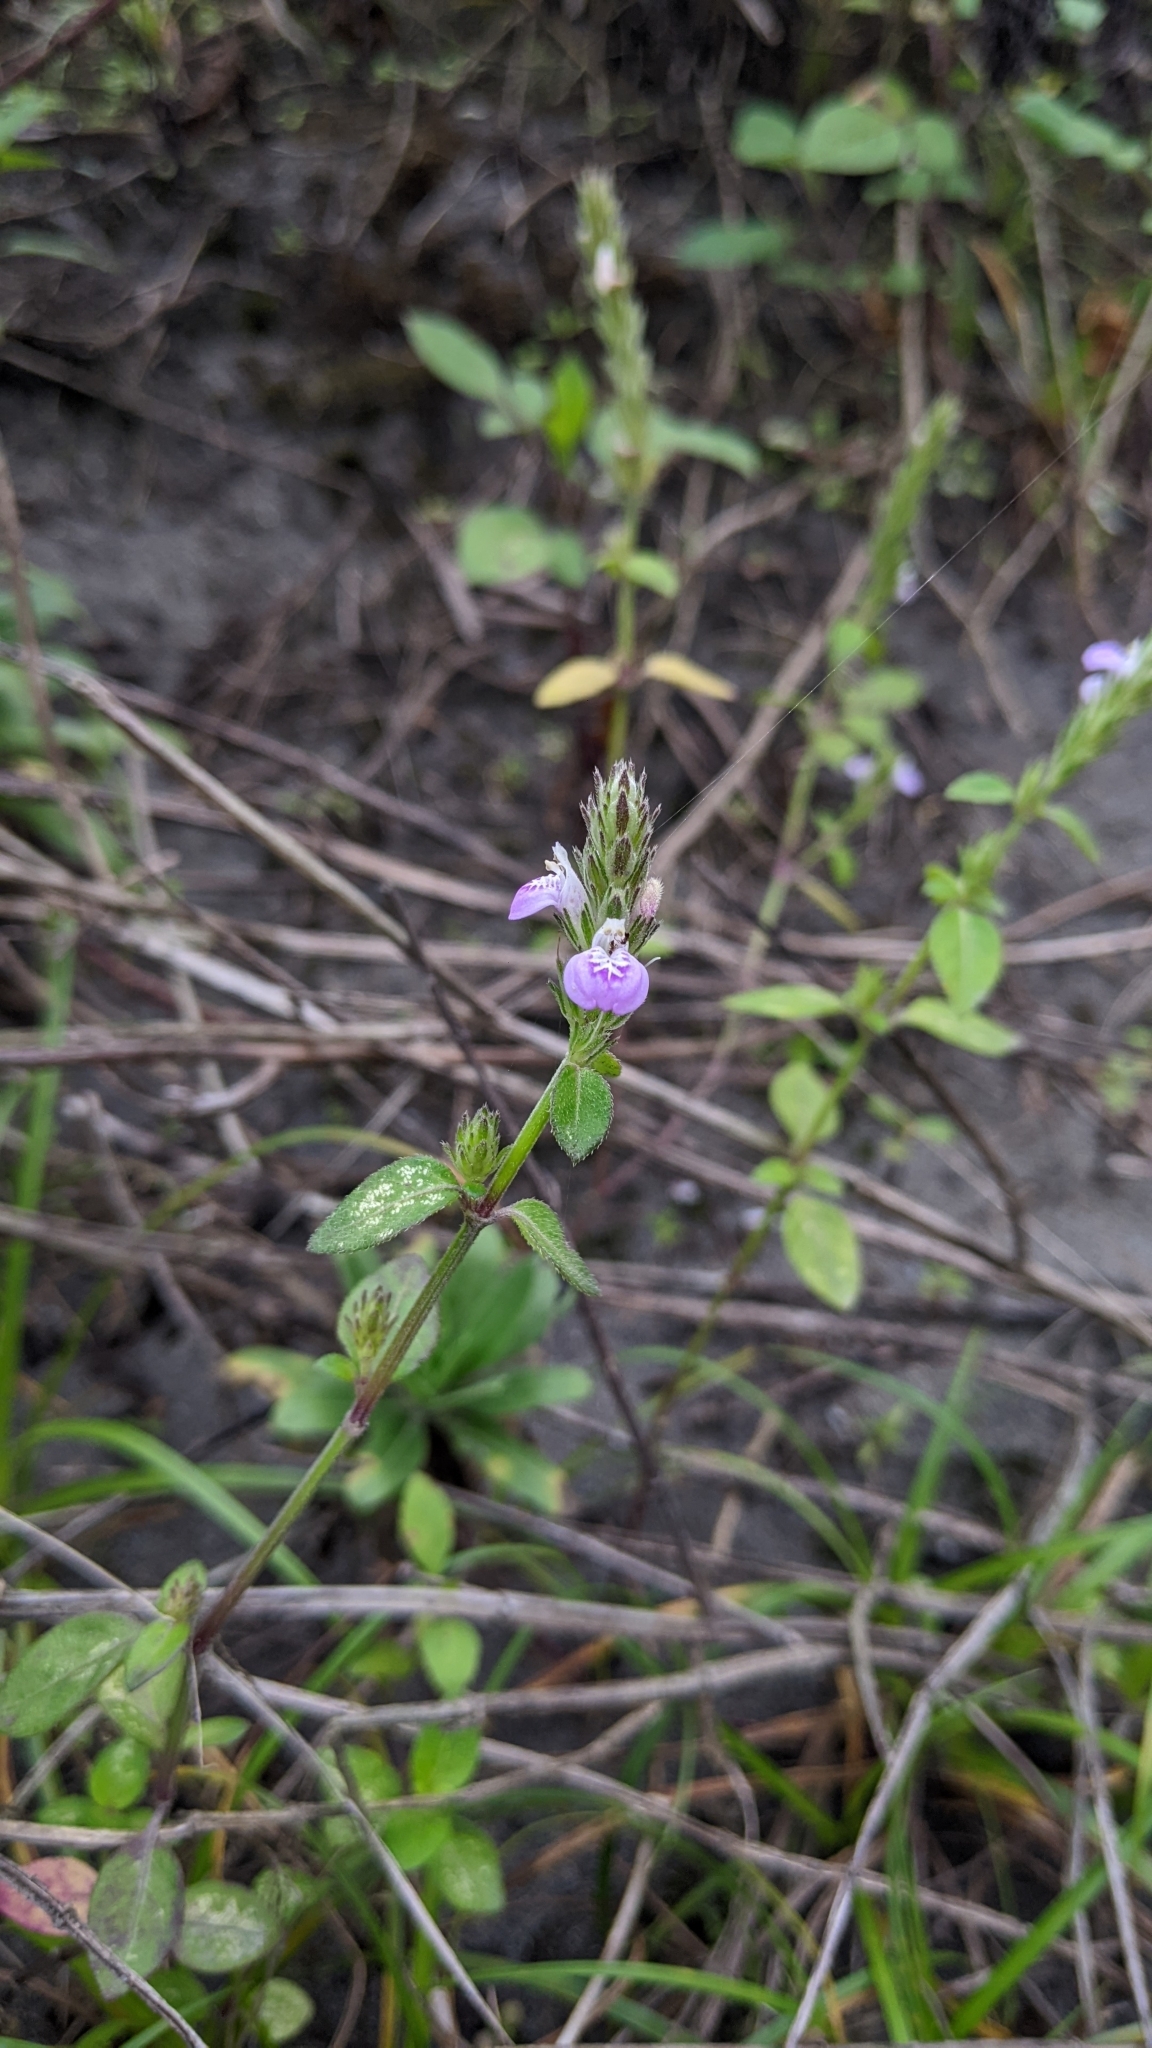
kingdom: Plantae
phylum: Tracheophyta
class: Magnoliopsida
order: Lamiales
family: Acanthaceae
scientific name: Acanthaceae
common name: Acanthaceae
